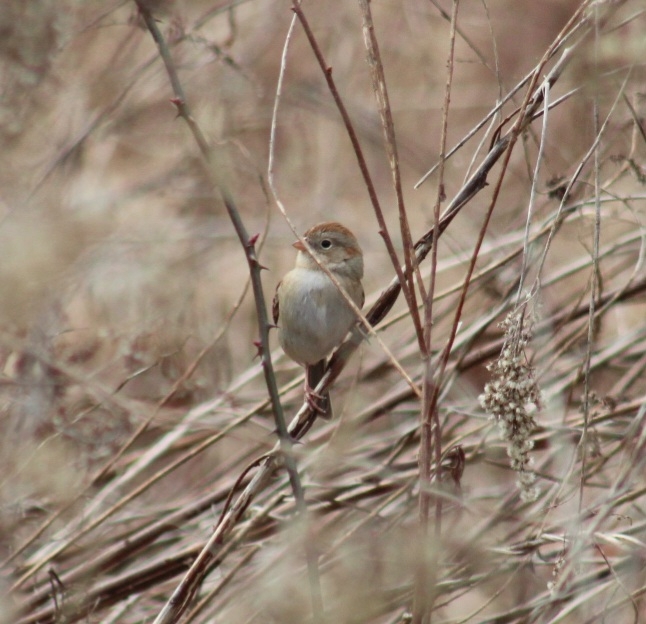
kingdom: Animalia
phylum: Chordata
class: Aves
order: Passeriformes
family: Passerellidae
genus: Spizella
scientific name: Spizella pusilla
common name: Field sparrow
